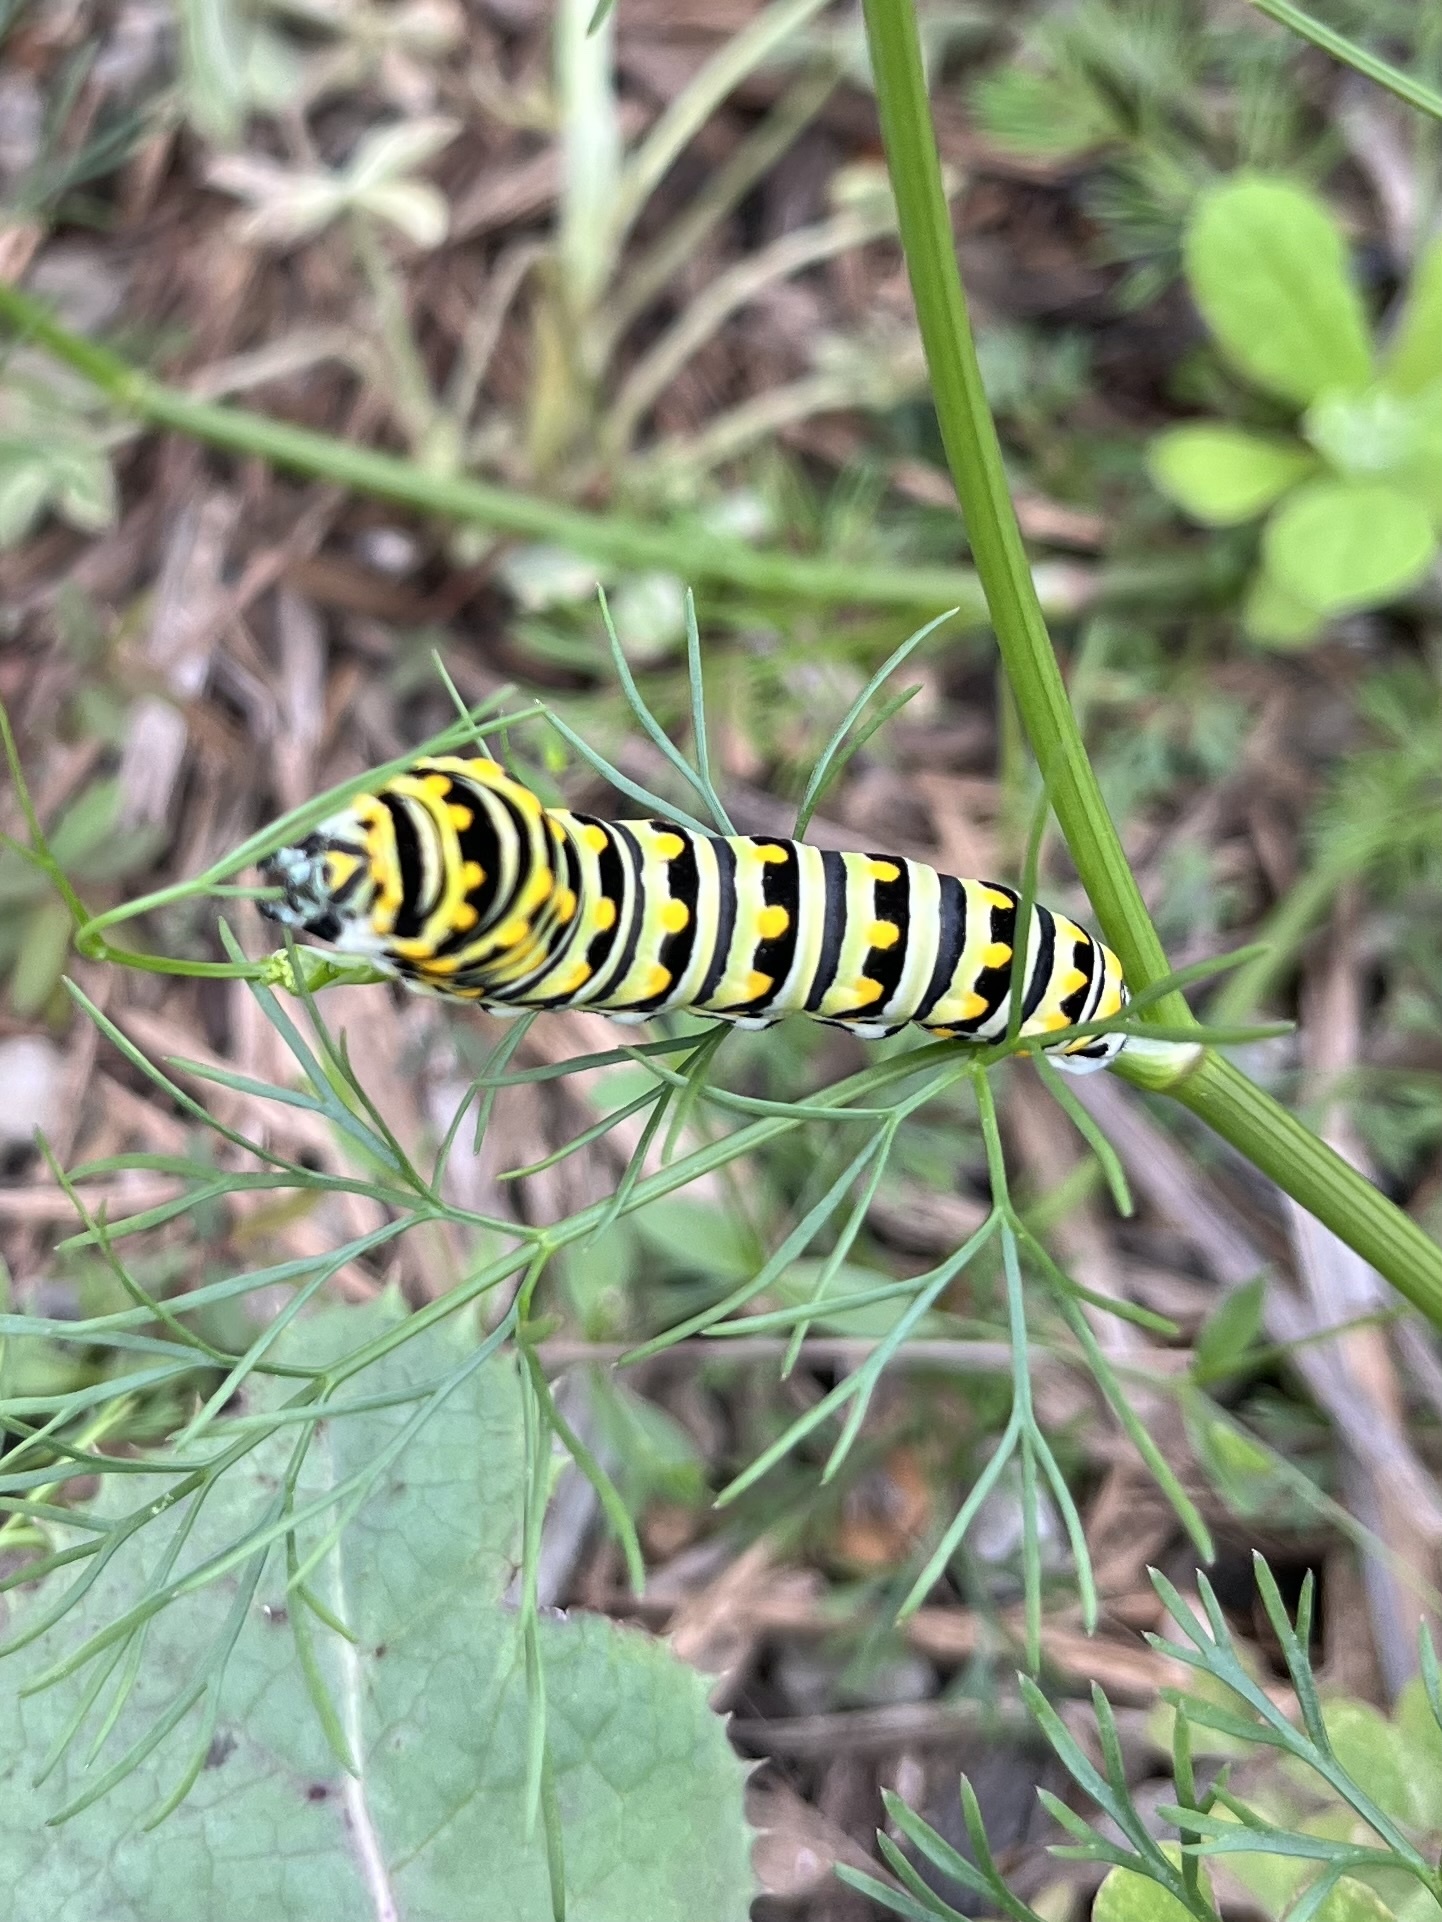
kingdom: Animalia
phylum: Arthropoda
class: Insecta
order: Lepidoptera
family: Papilionidae
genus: Papilio
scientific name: Papilio polyxenes
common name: Black swallowtail
